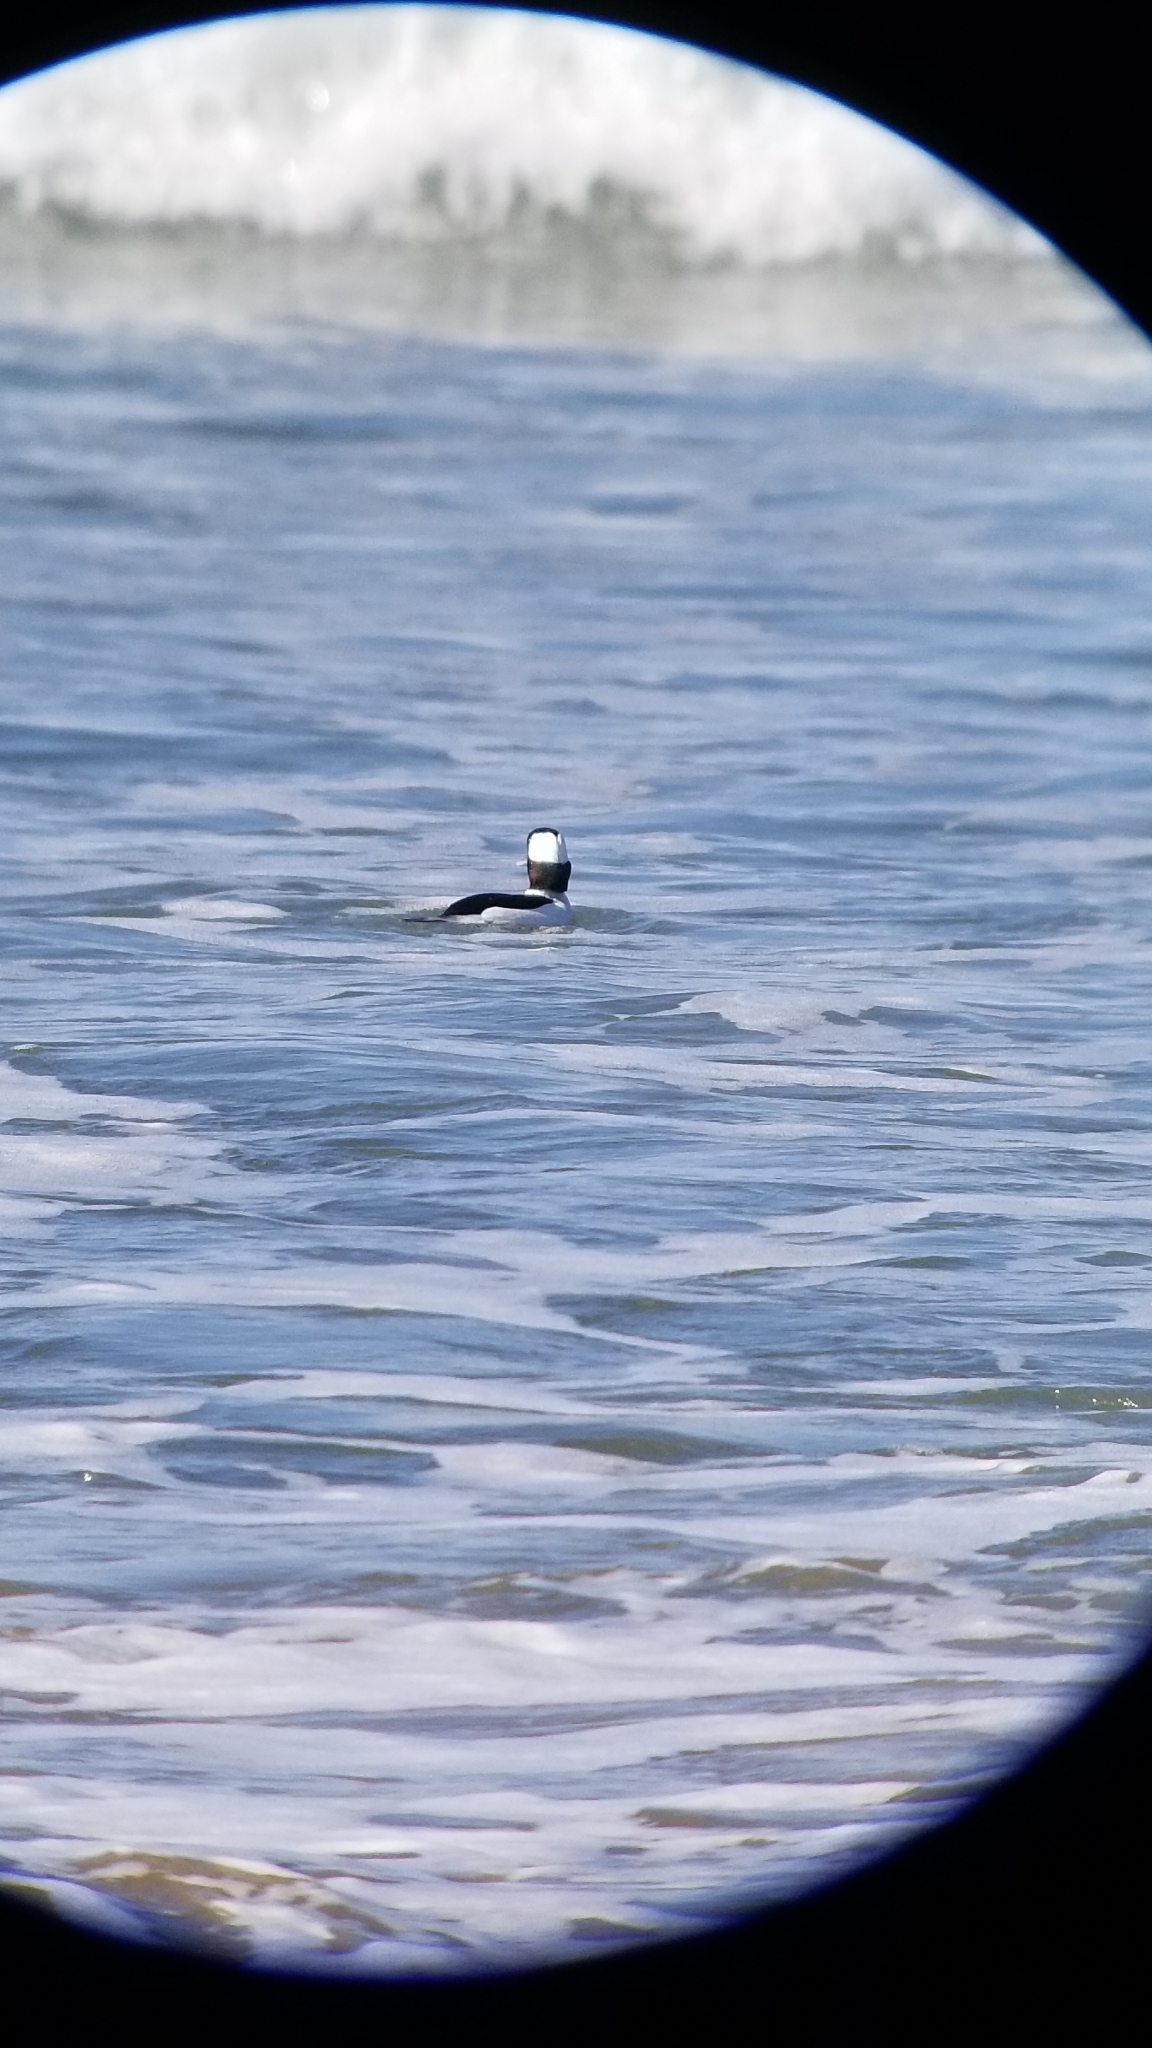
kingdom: Animalia
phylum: Chordata
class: Aves
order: Anseriformes
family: Anatidae
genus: Bucephala
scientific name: Bucephala albeola
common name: Bufflehead
